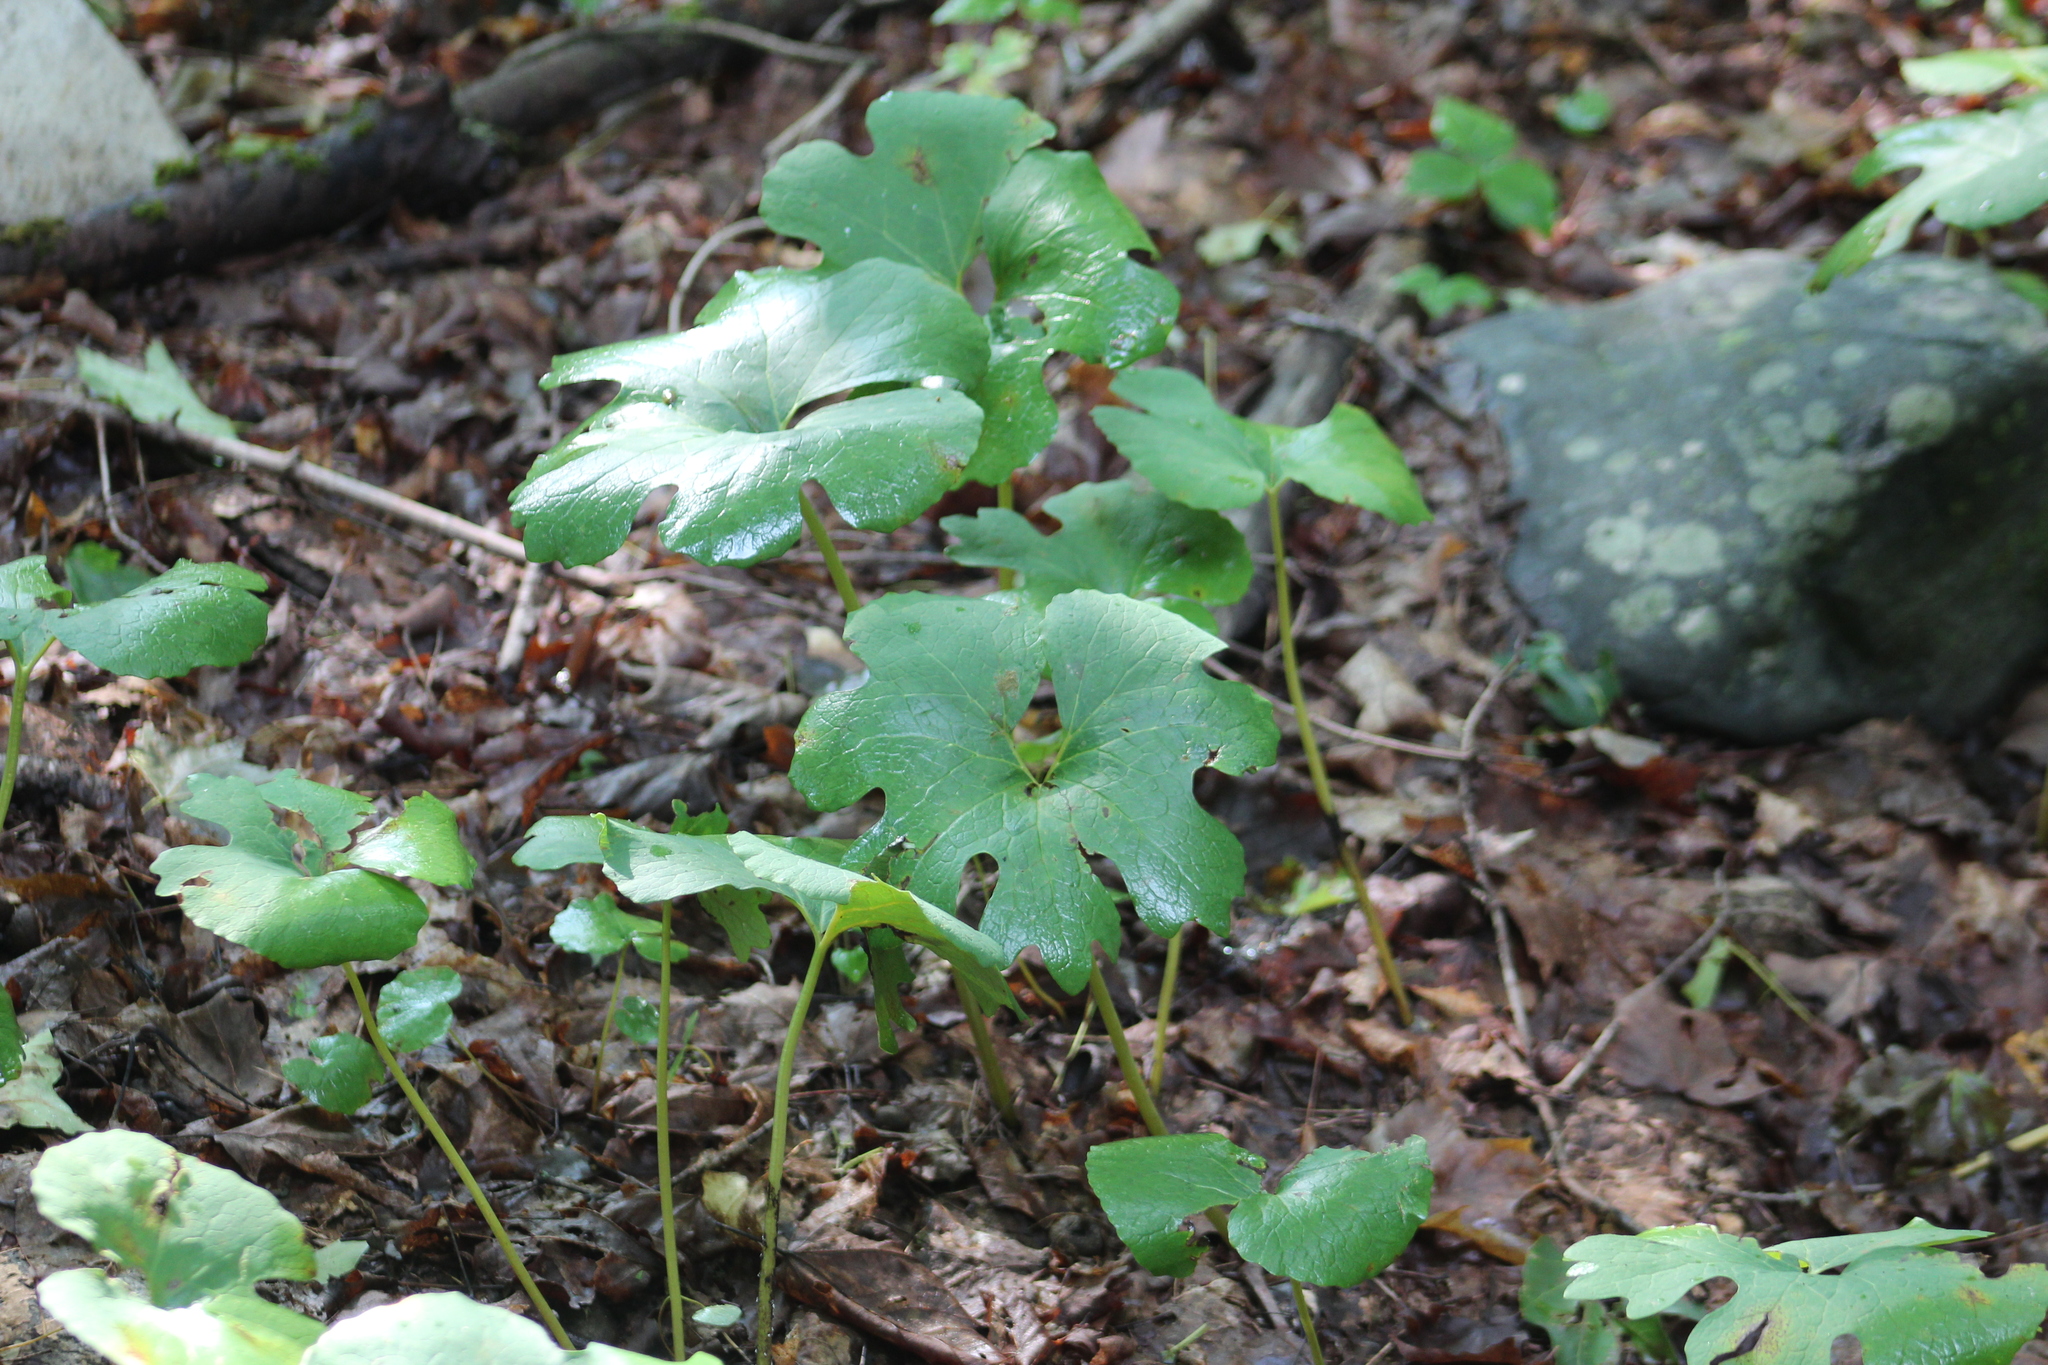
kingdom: Plantae
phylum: Tracheophyta
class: Magnoliopsida
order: Ranunculales
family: Papaveraceae
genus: Sanguinaria
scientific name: Sanguinaria canadensis
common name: Bloodroot
